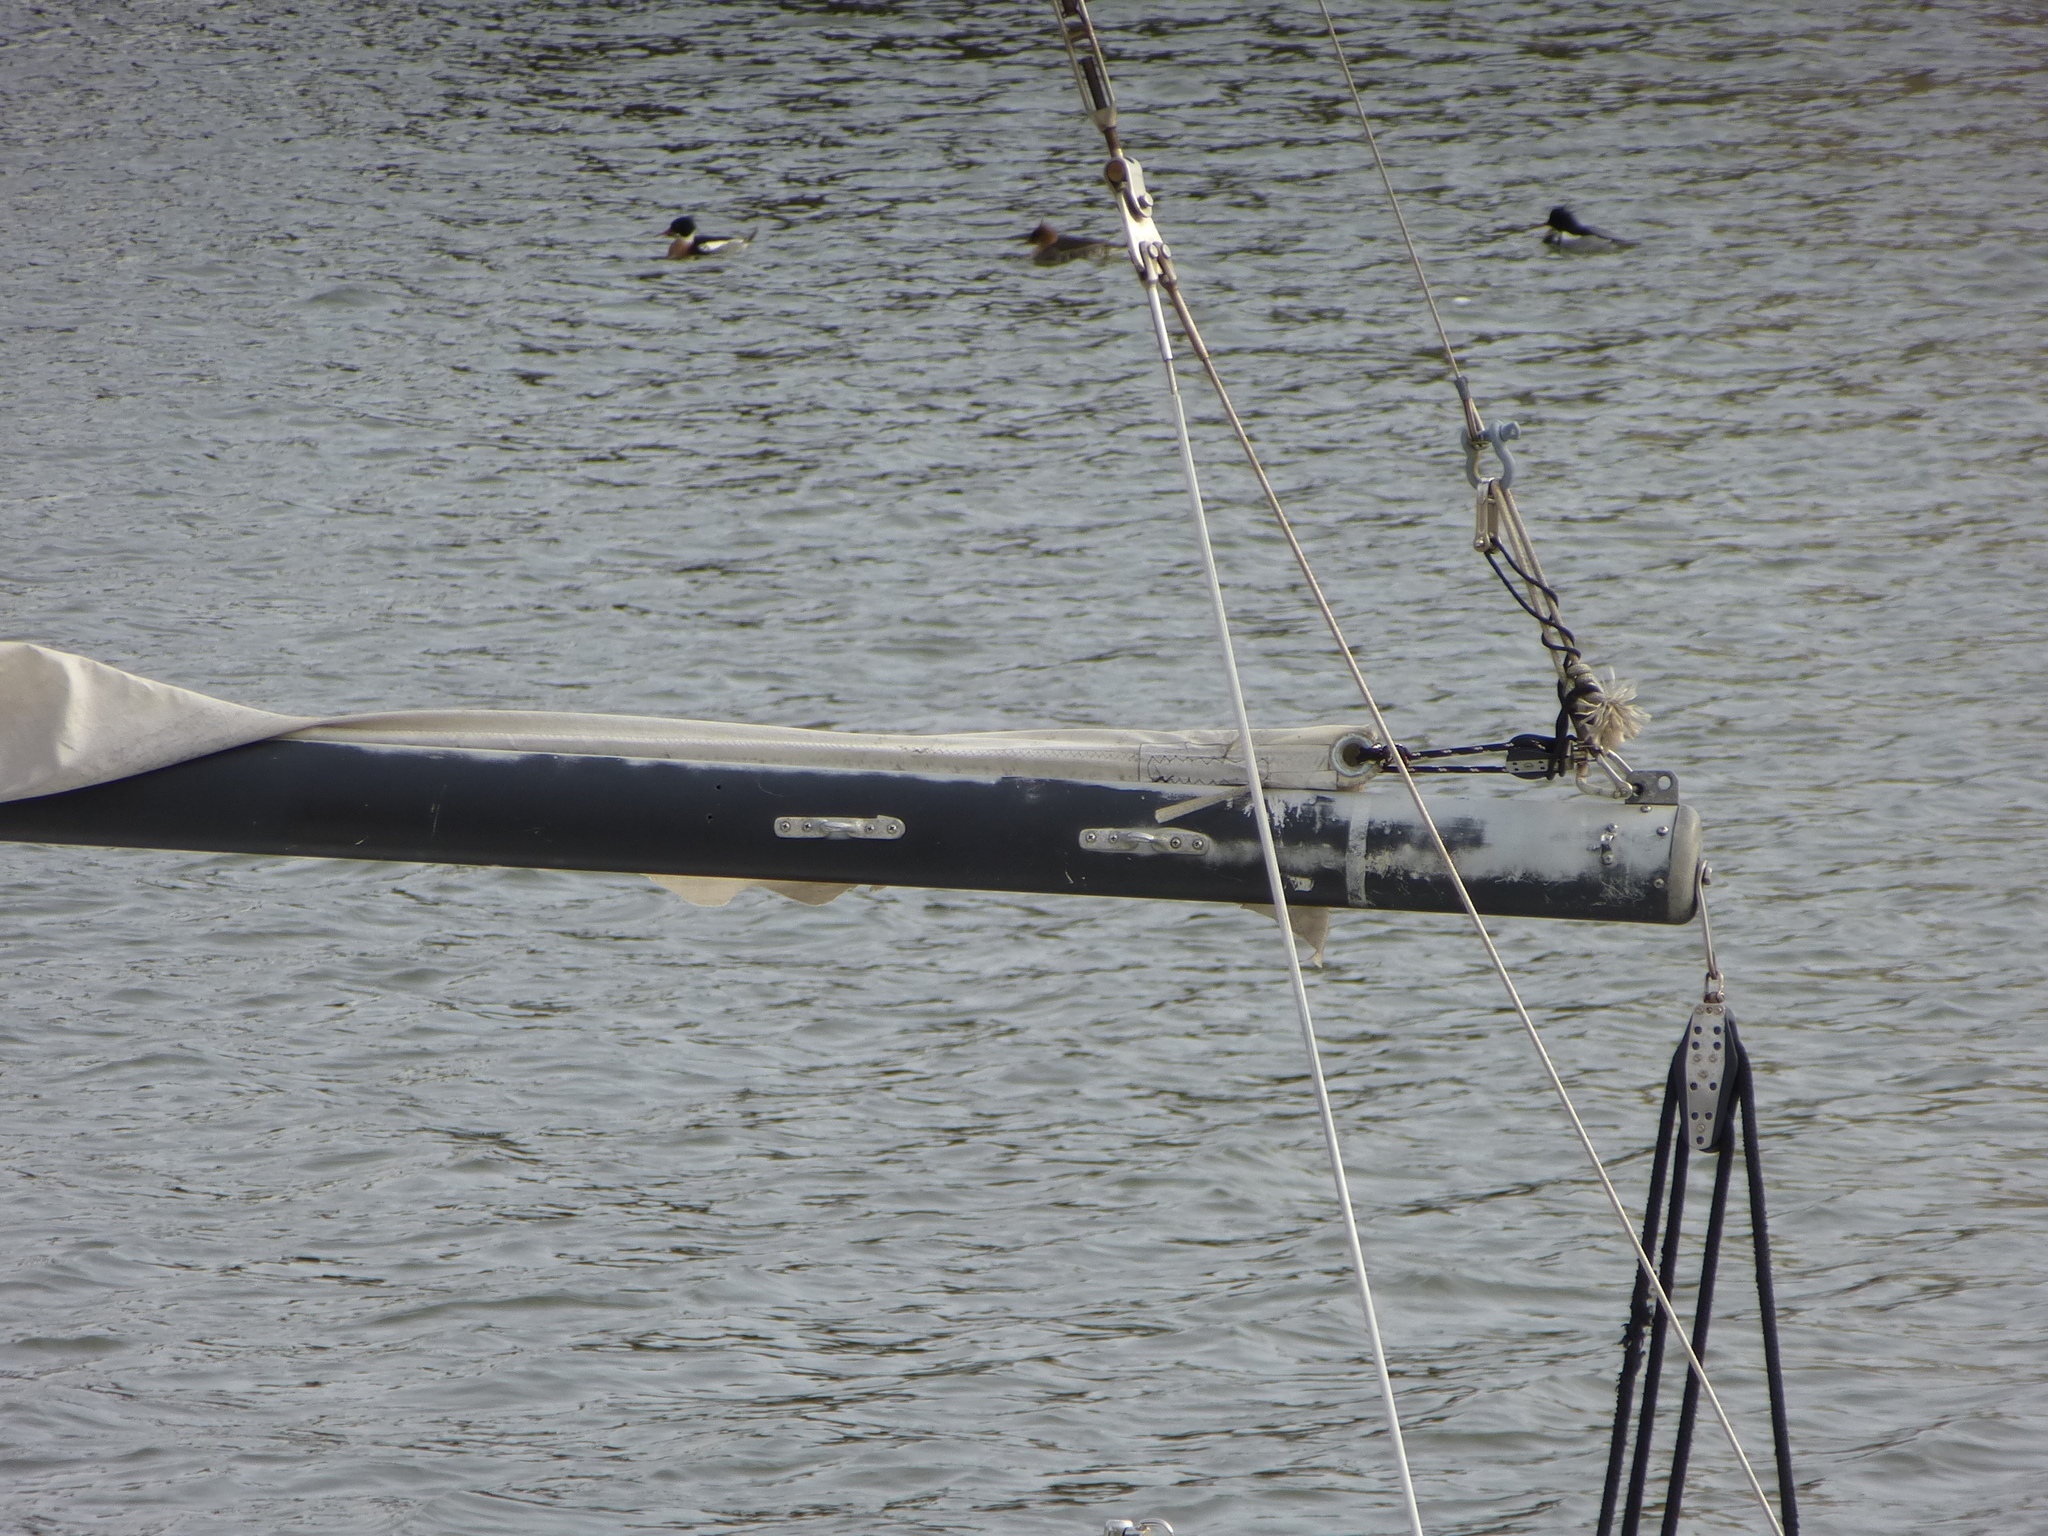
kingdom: Animalia
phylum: Chordata
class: Aves
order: Anseriformes
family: Anatidae
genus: Mergus
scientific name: Mergus serrator
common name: Red-breasted merganser
